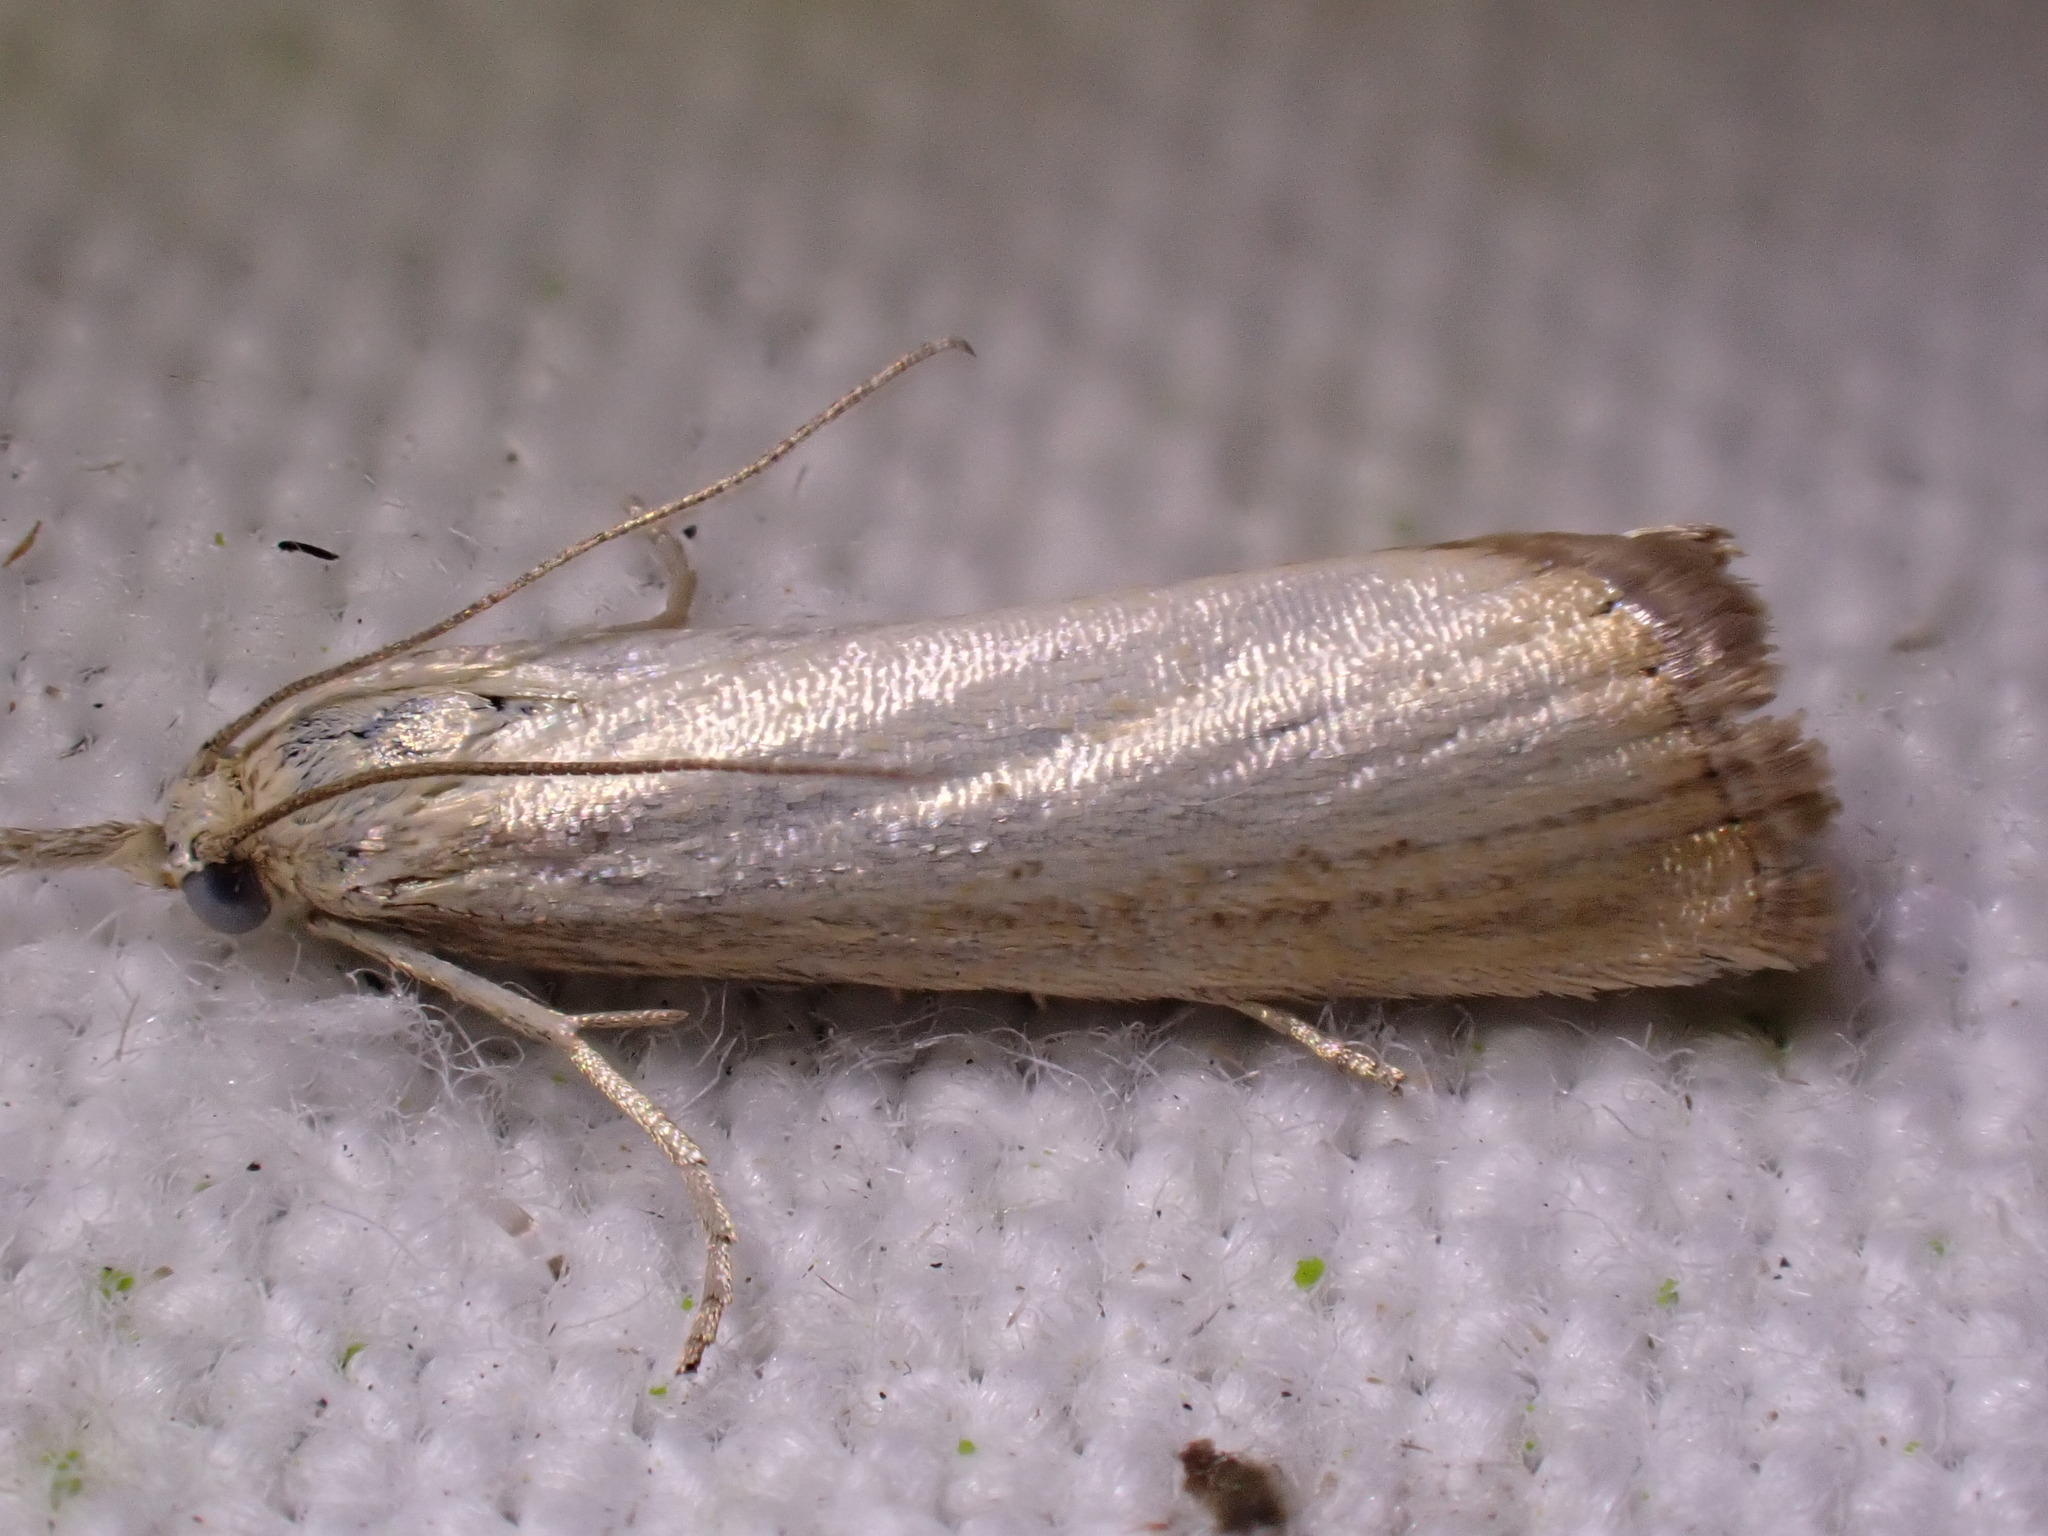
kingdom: Animalia
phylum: Arthropoda
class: Insecta
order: Lepidoptera
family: Crambidae
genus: Agriphila
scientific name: Agriphila straminella
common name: Straw grass-veneer
